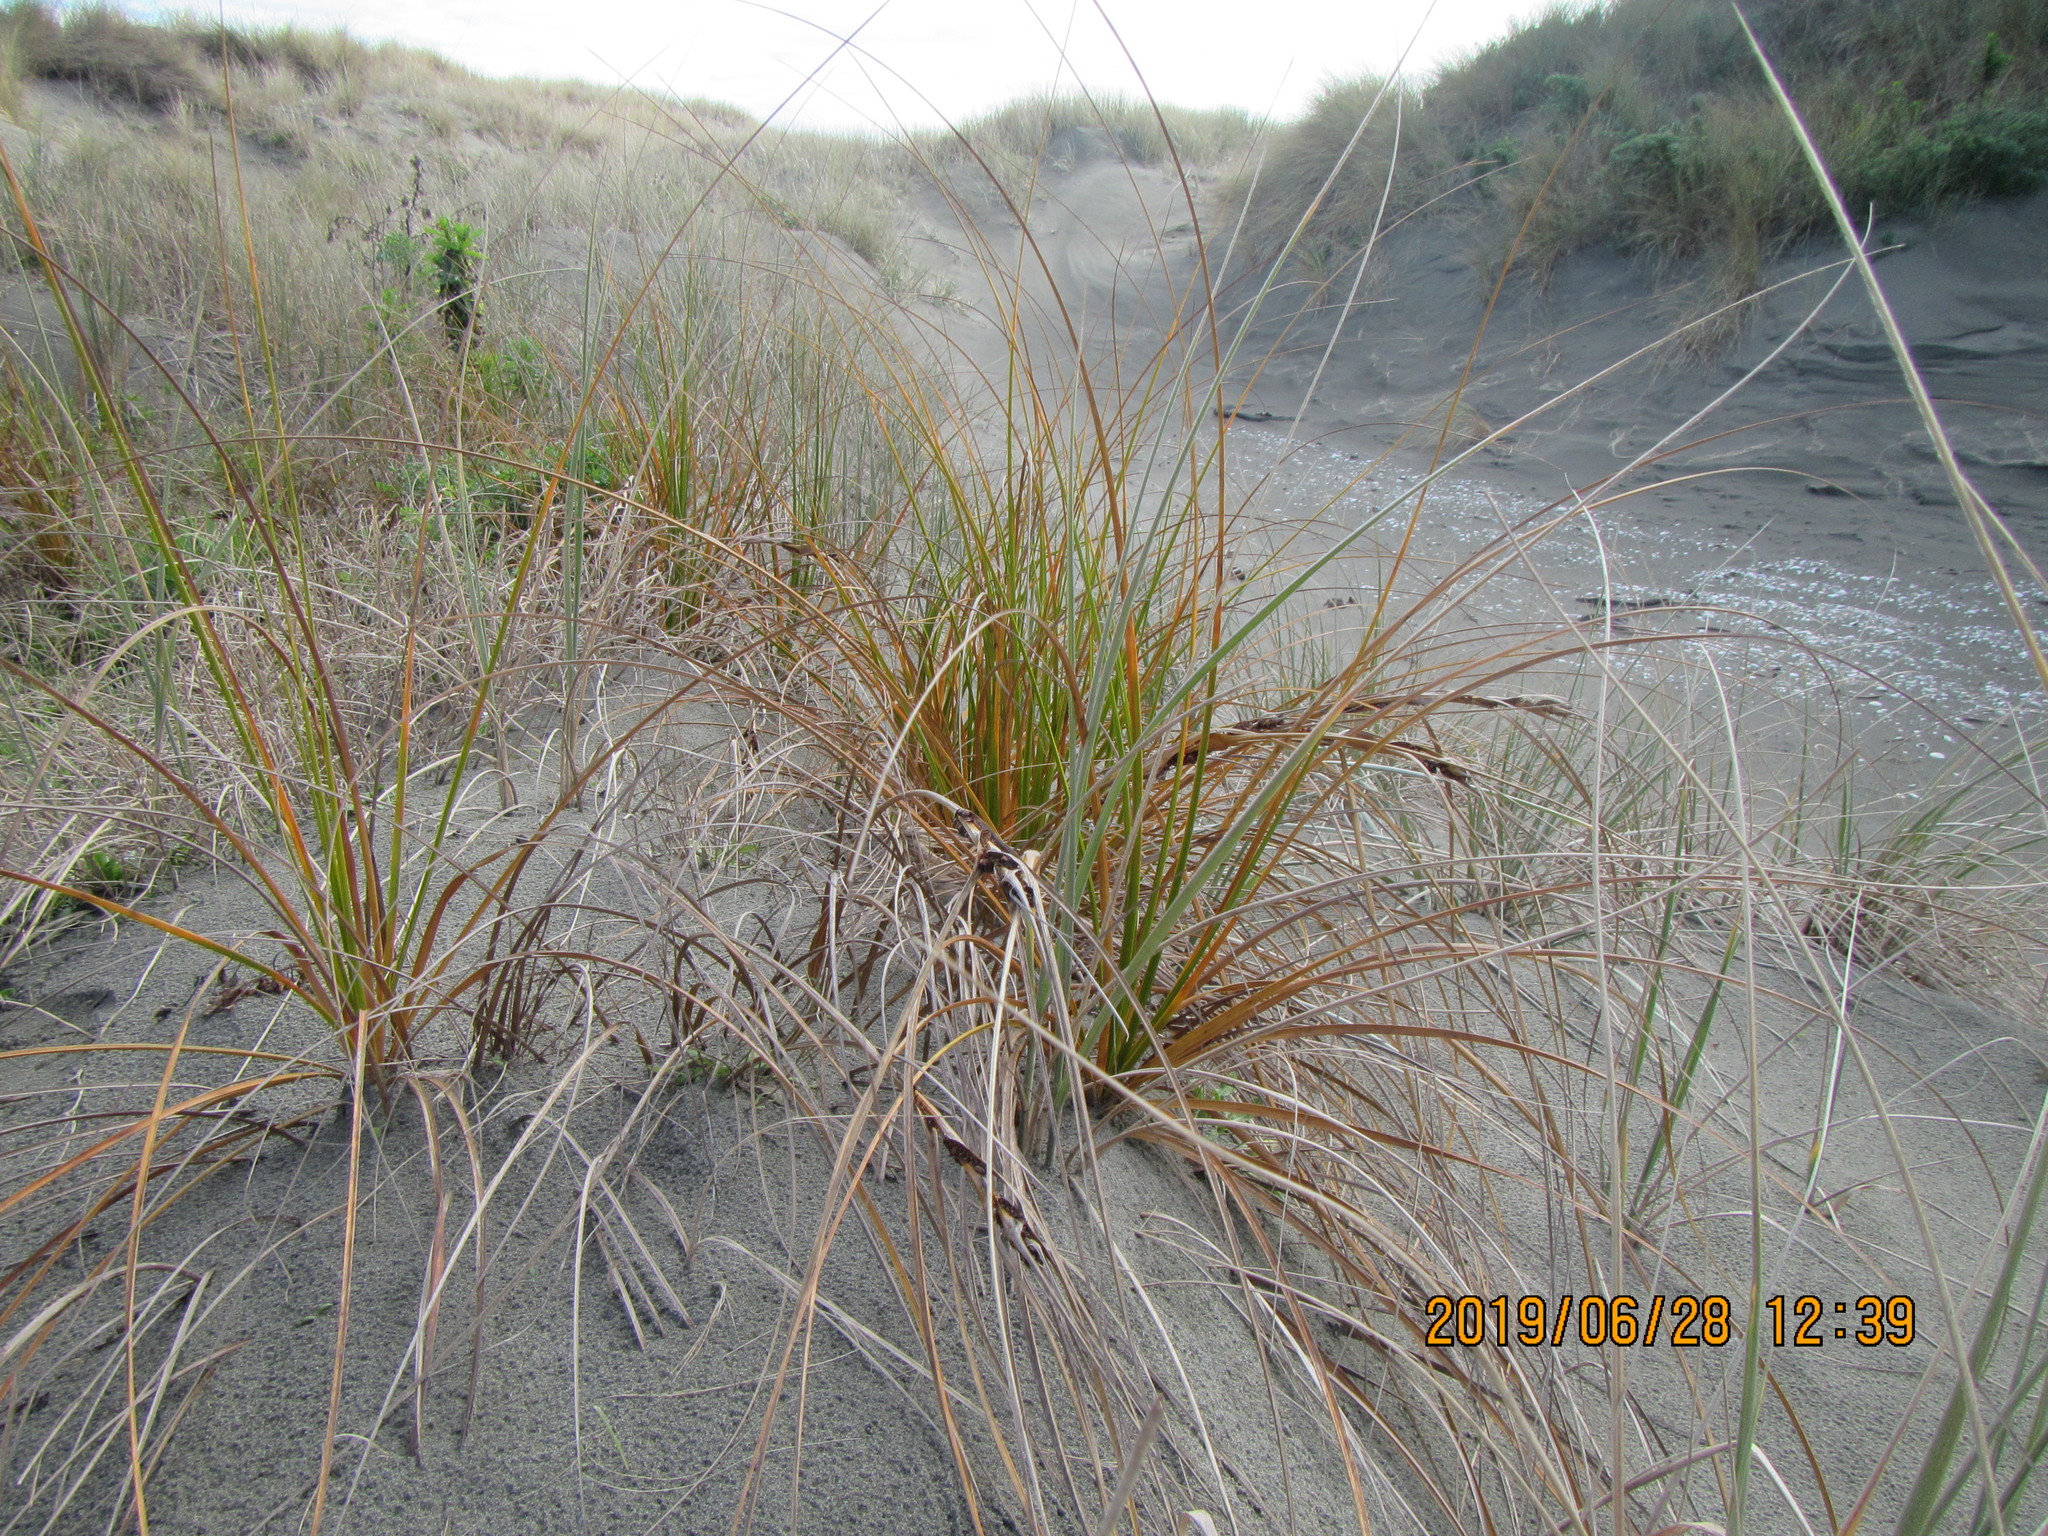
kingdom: Plantae
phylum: Tracheophyta
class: Liliopsida
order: Poales
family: Cyperaceae
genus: Ficinia
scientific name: Ficinia spiralis
